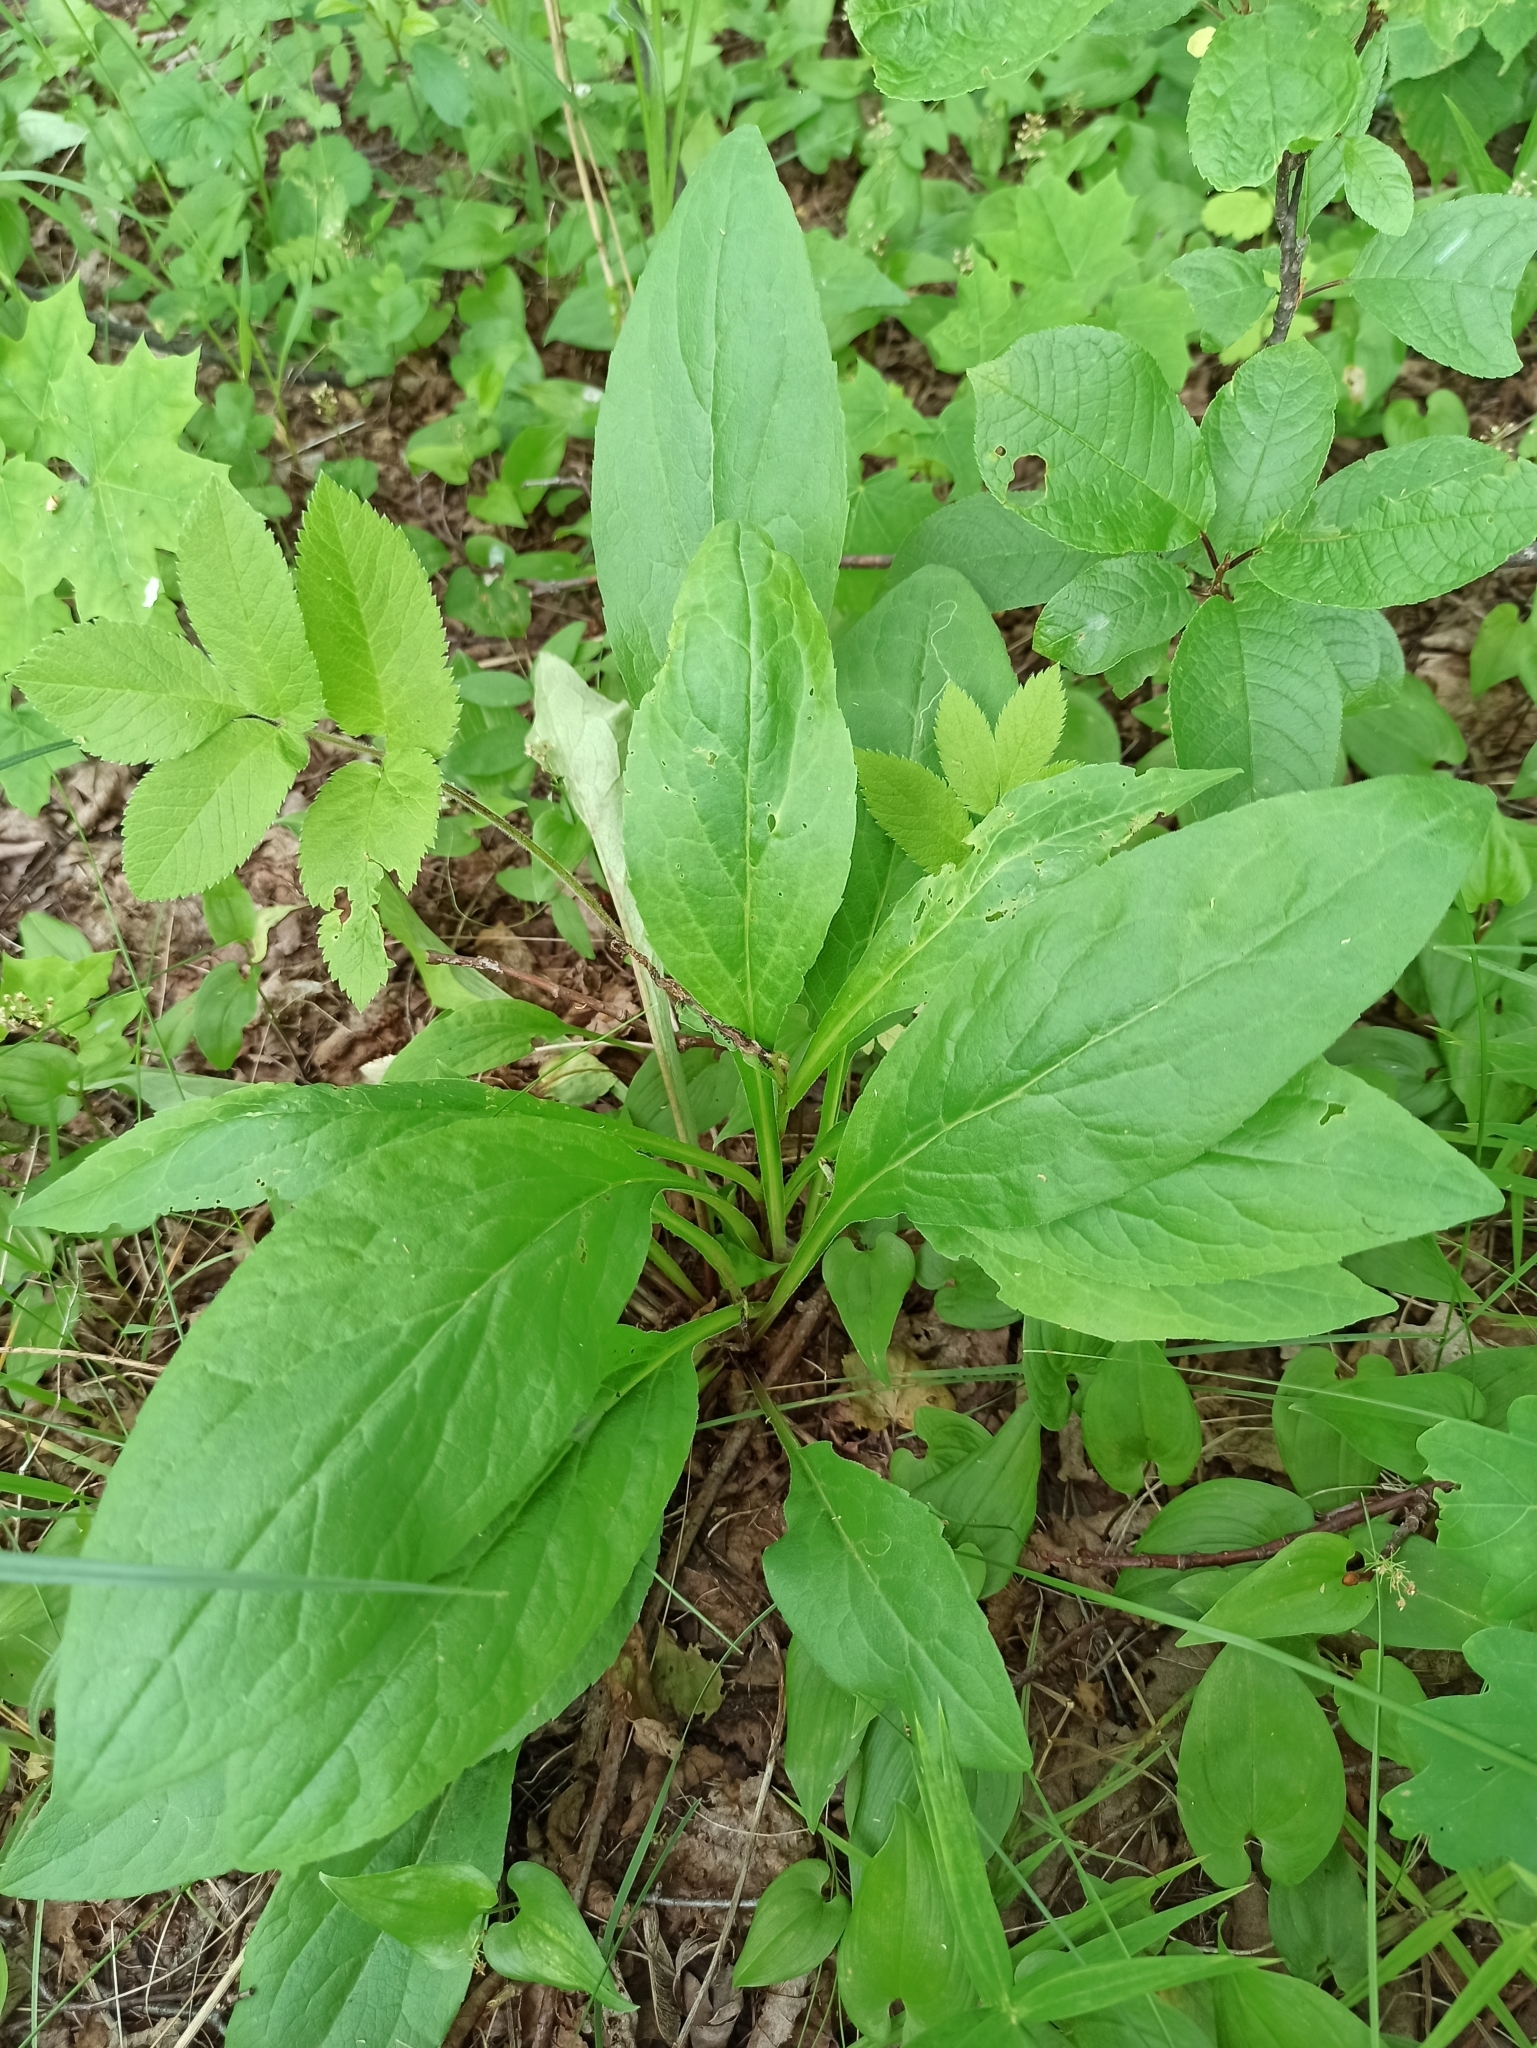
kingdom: Plantae
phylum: Tracheophyta
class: Magnoliopsida
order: Asterales
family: Asteraceae
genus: Solidago
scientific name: Solidago virgaurea
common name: Goldenrod
